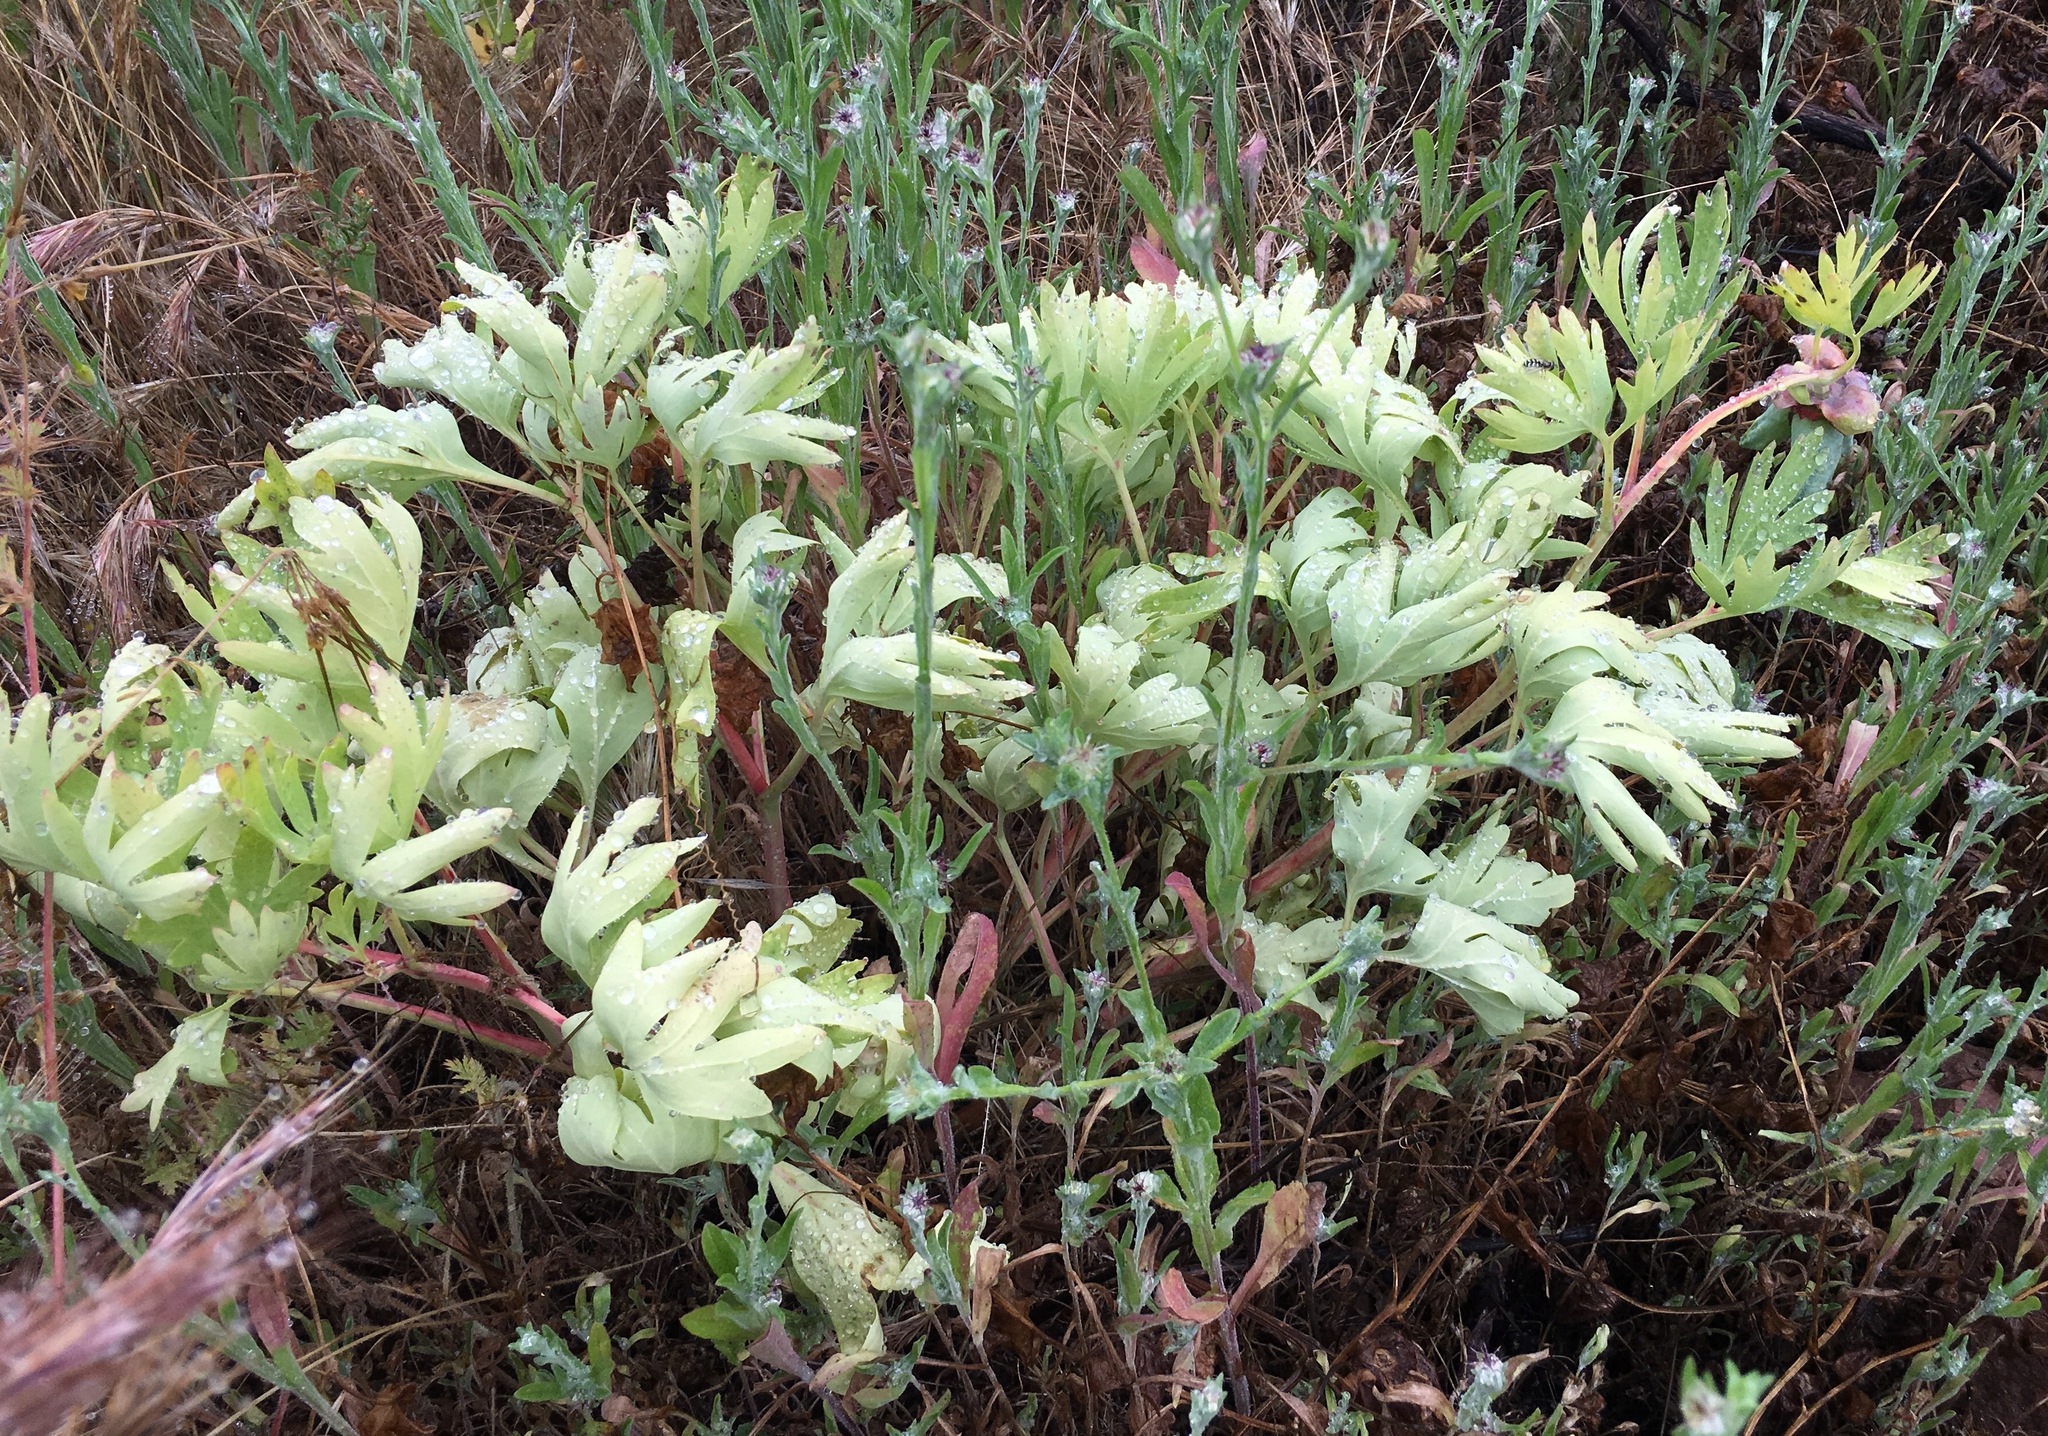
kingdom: Plantae
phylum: Tracheophyta
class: Magnoliopsida
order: Asterales
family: Asteraceae
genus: Centaurea
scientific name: Centaurea melitensis
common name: Maltese star-thistle
